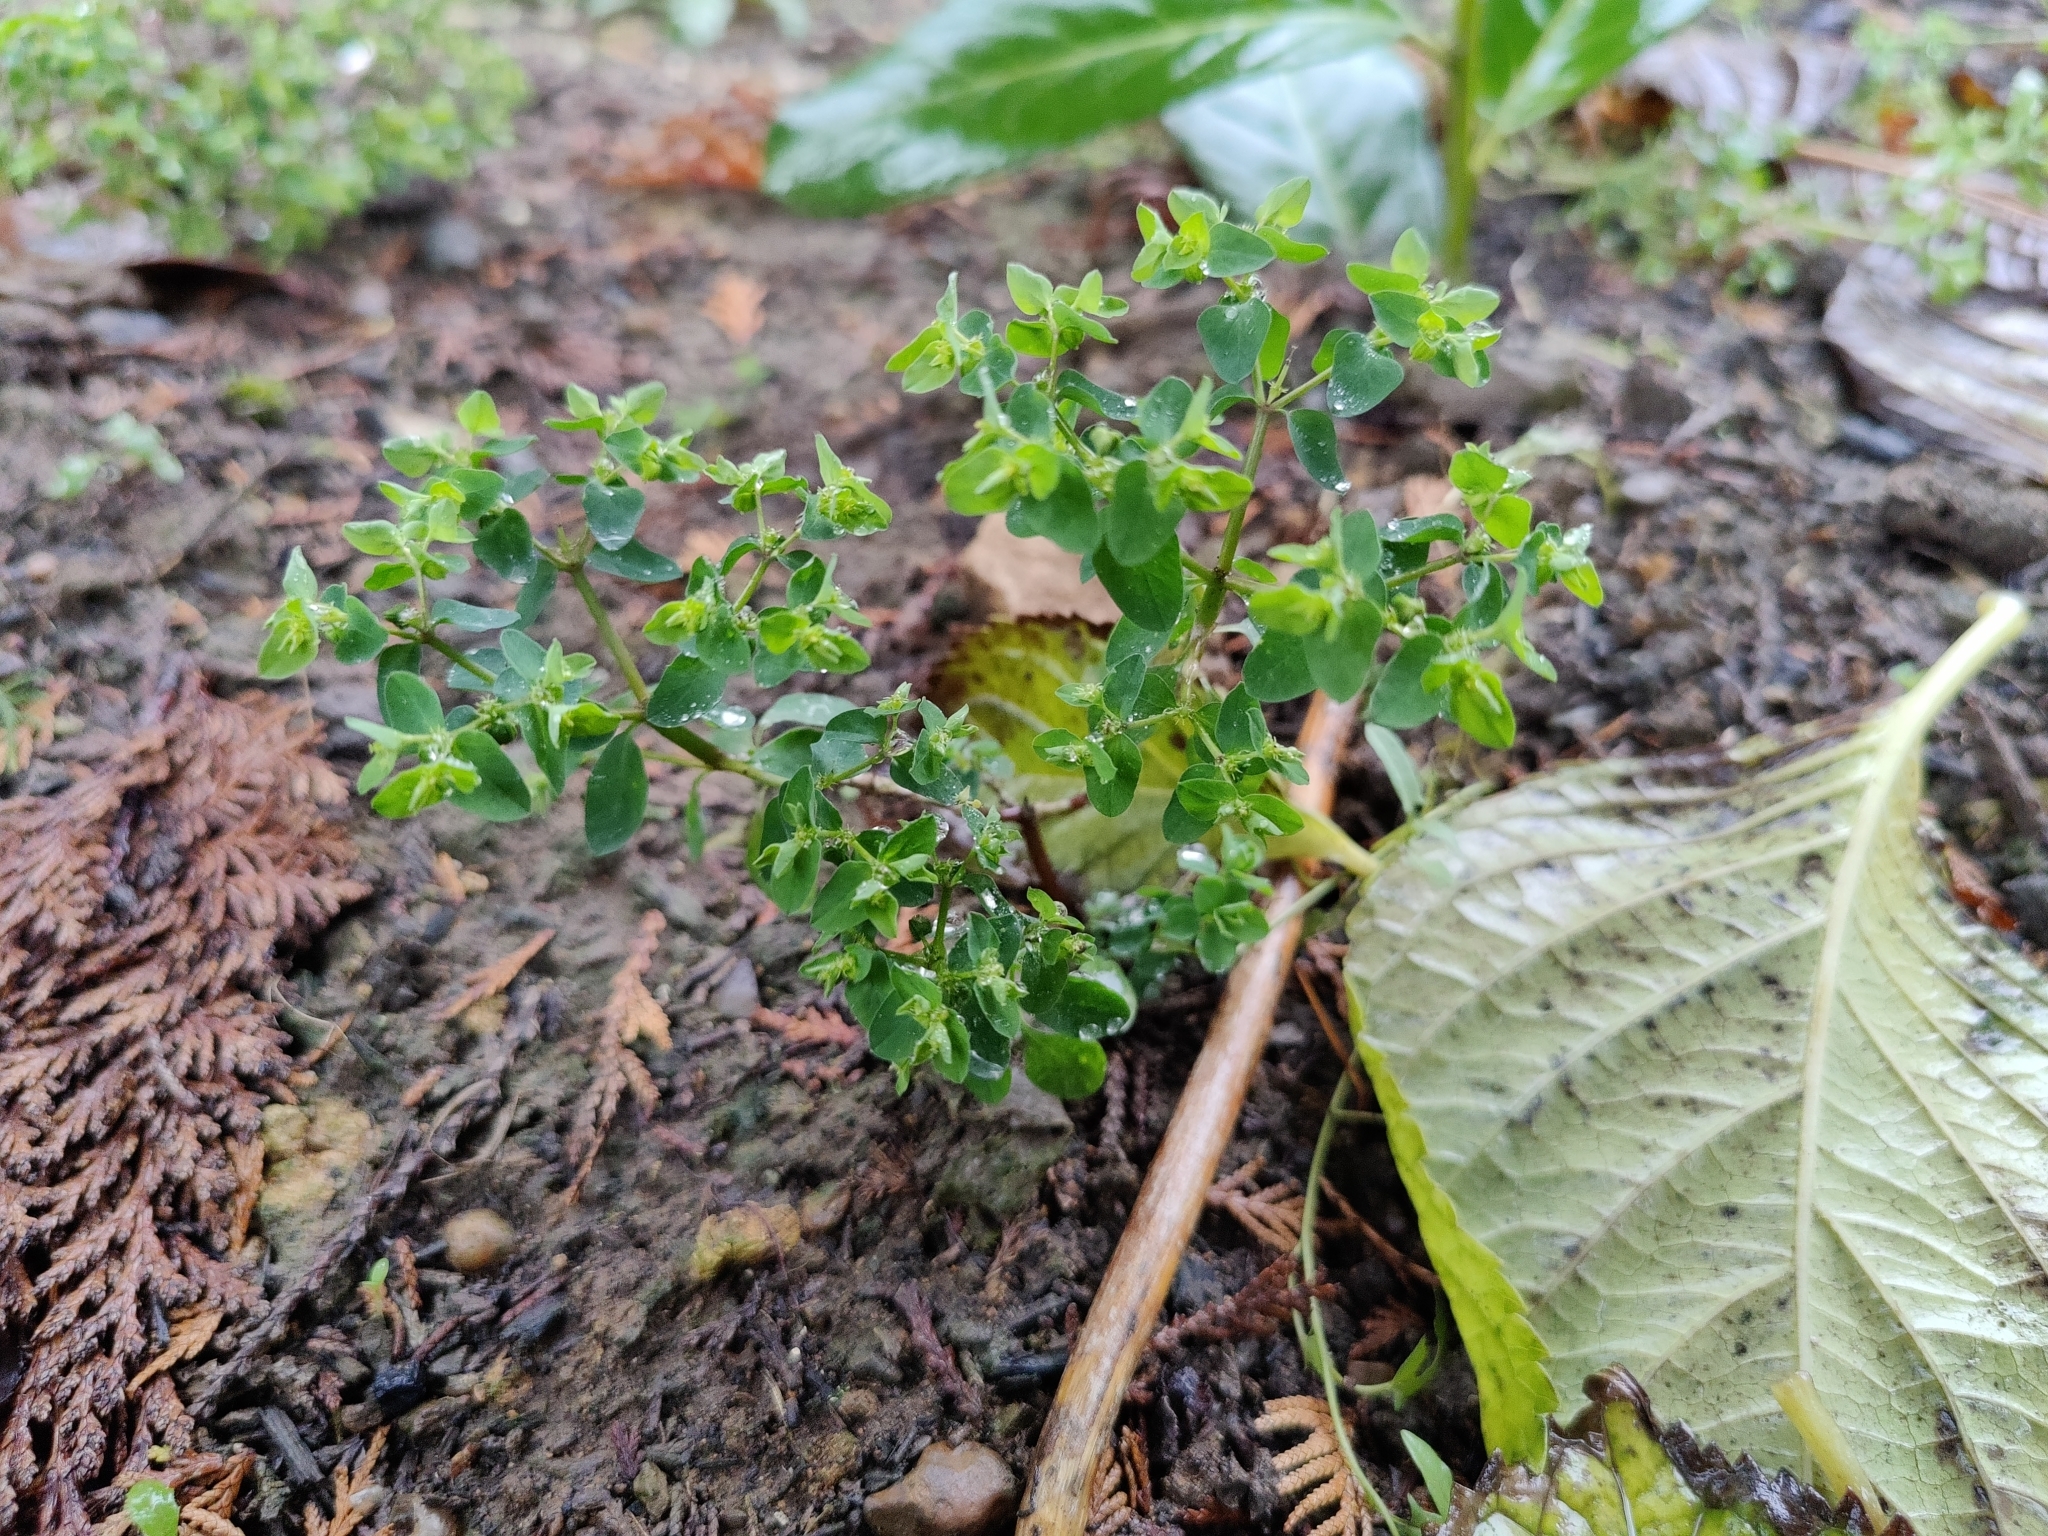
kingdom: Plantae
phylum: Tracheophyta
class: Magnoliopsida
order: Malpighiales
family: Euphorbiaceae
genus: Euphorbia
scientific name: Euphorbia peplus
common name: Petty spurge
